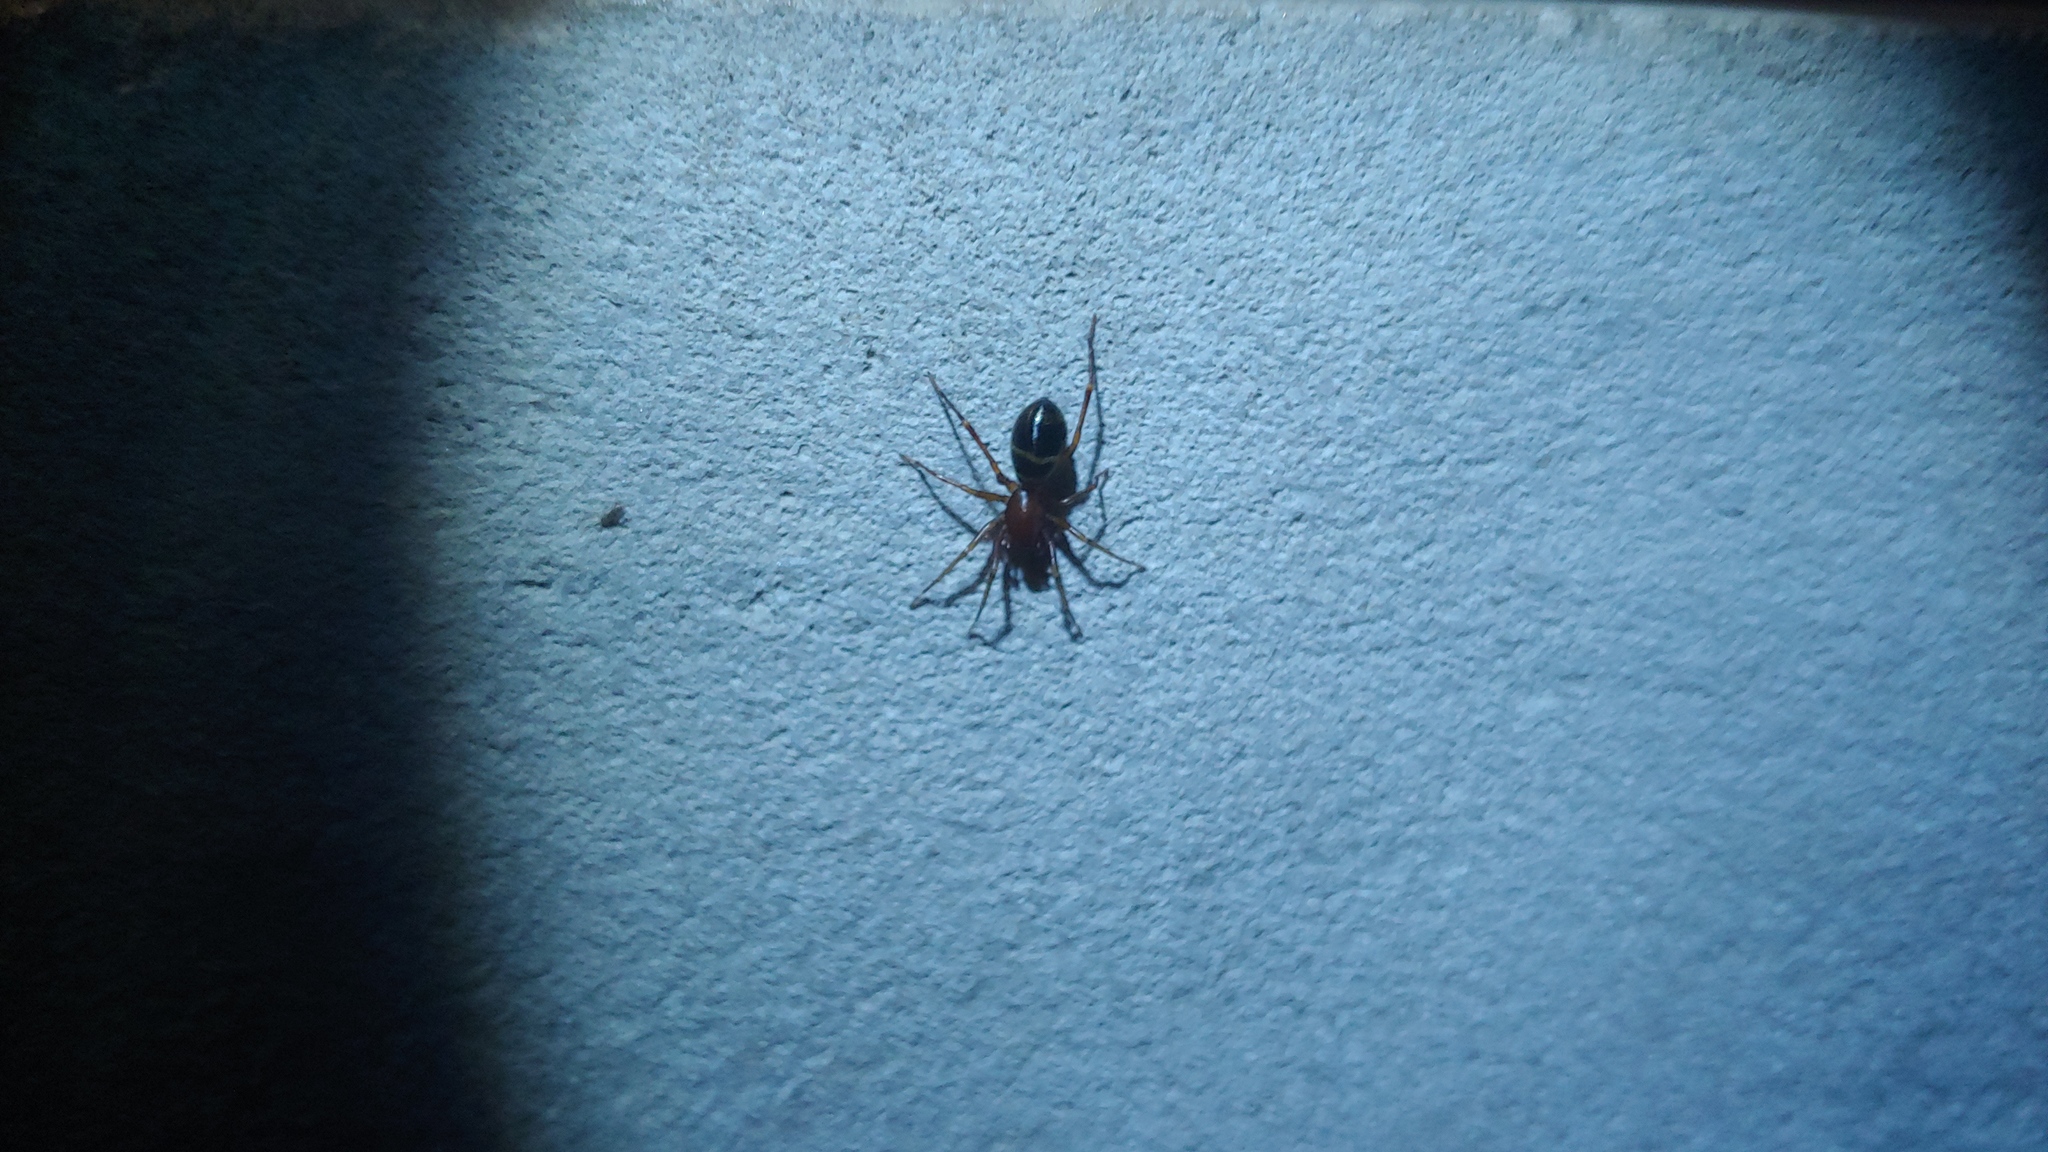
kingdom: Animalia
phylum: Arthropoda
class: Arachnida
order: Araneae
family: Corinnidae
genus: Castianeira
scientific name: Castianeira cingulata
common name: Two-banded ant-mimic sac spider
